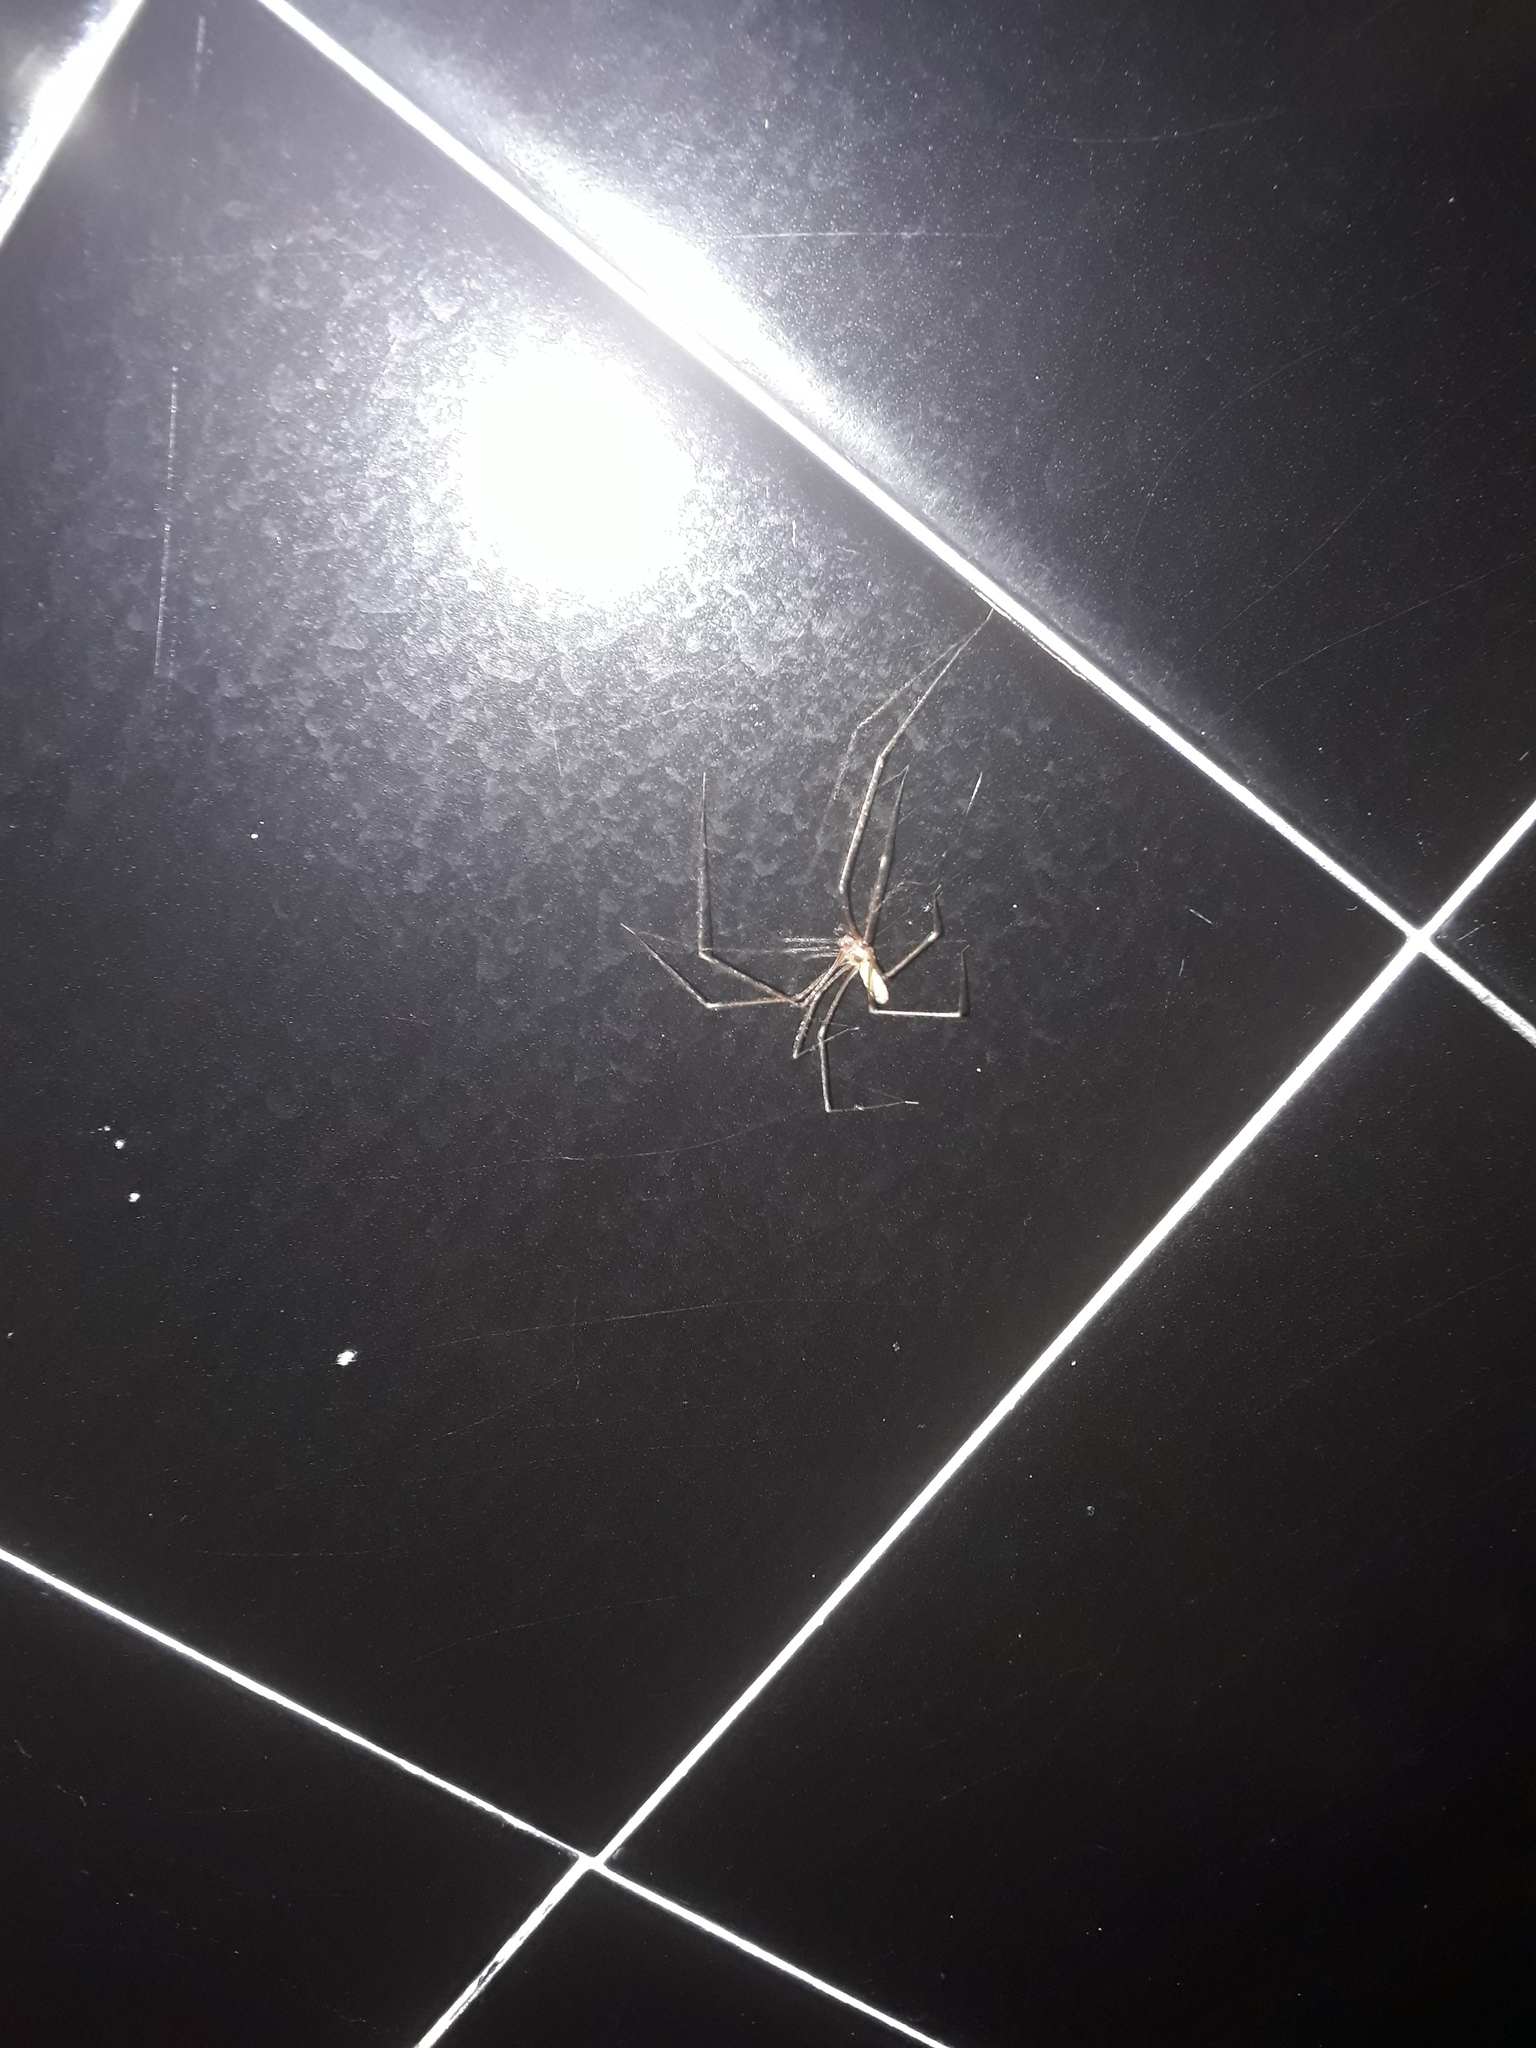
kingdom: Animalia
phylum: Arthropoda
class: Arachnida
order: Araneae
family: Pholcidae
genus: Pholcus
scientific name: Pholcus phalangioides
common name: Longbodied cellar spider
